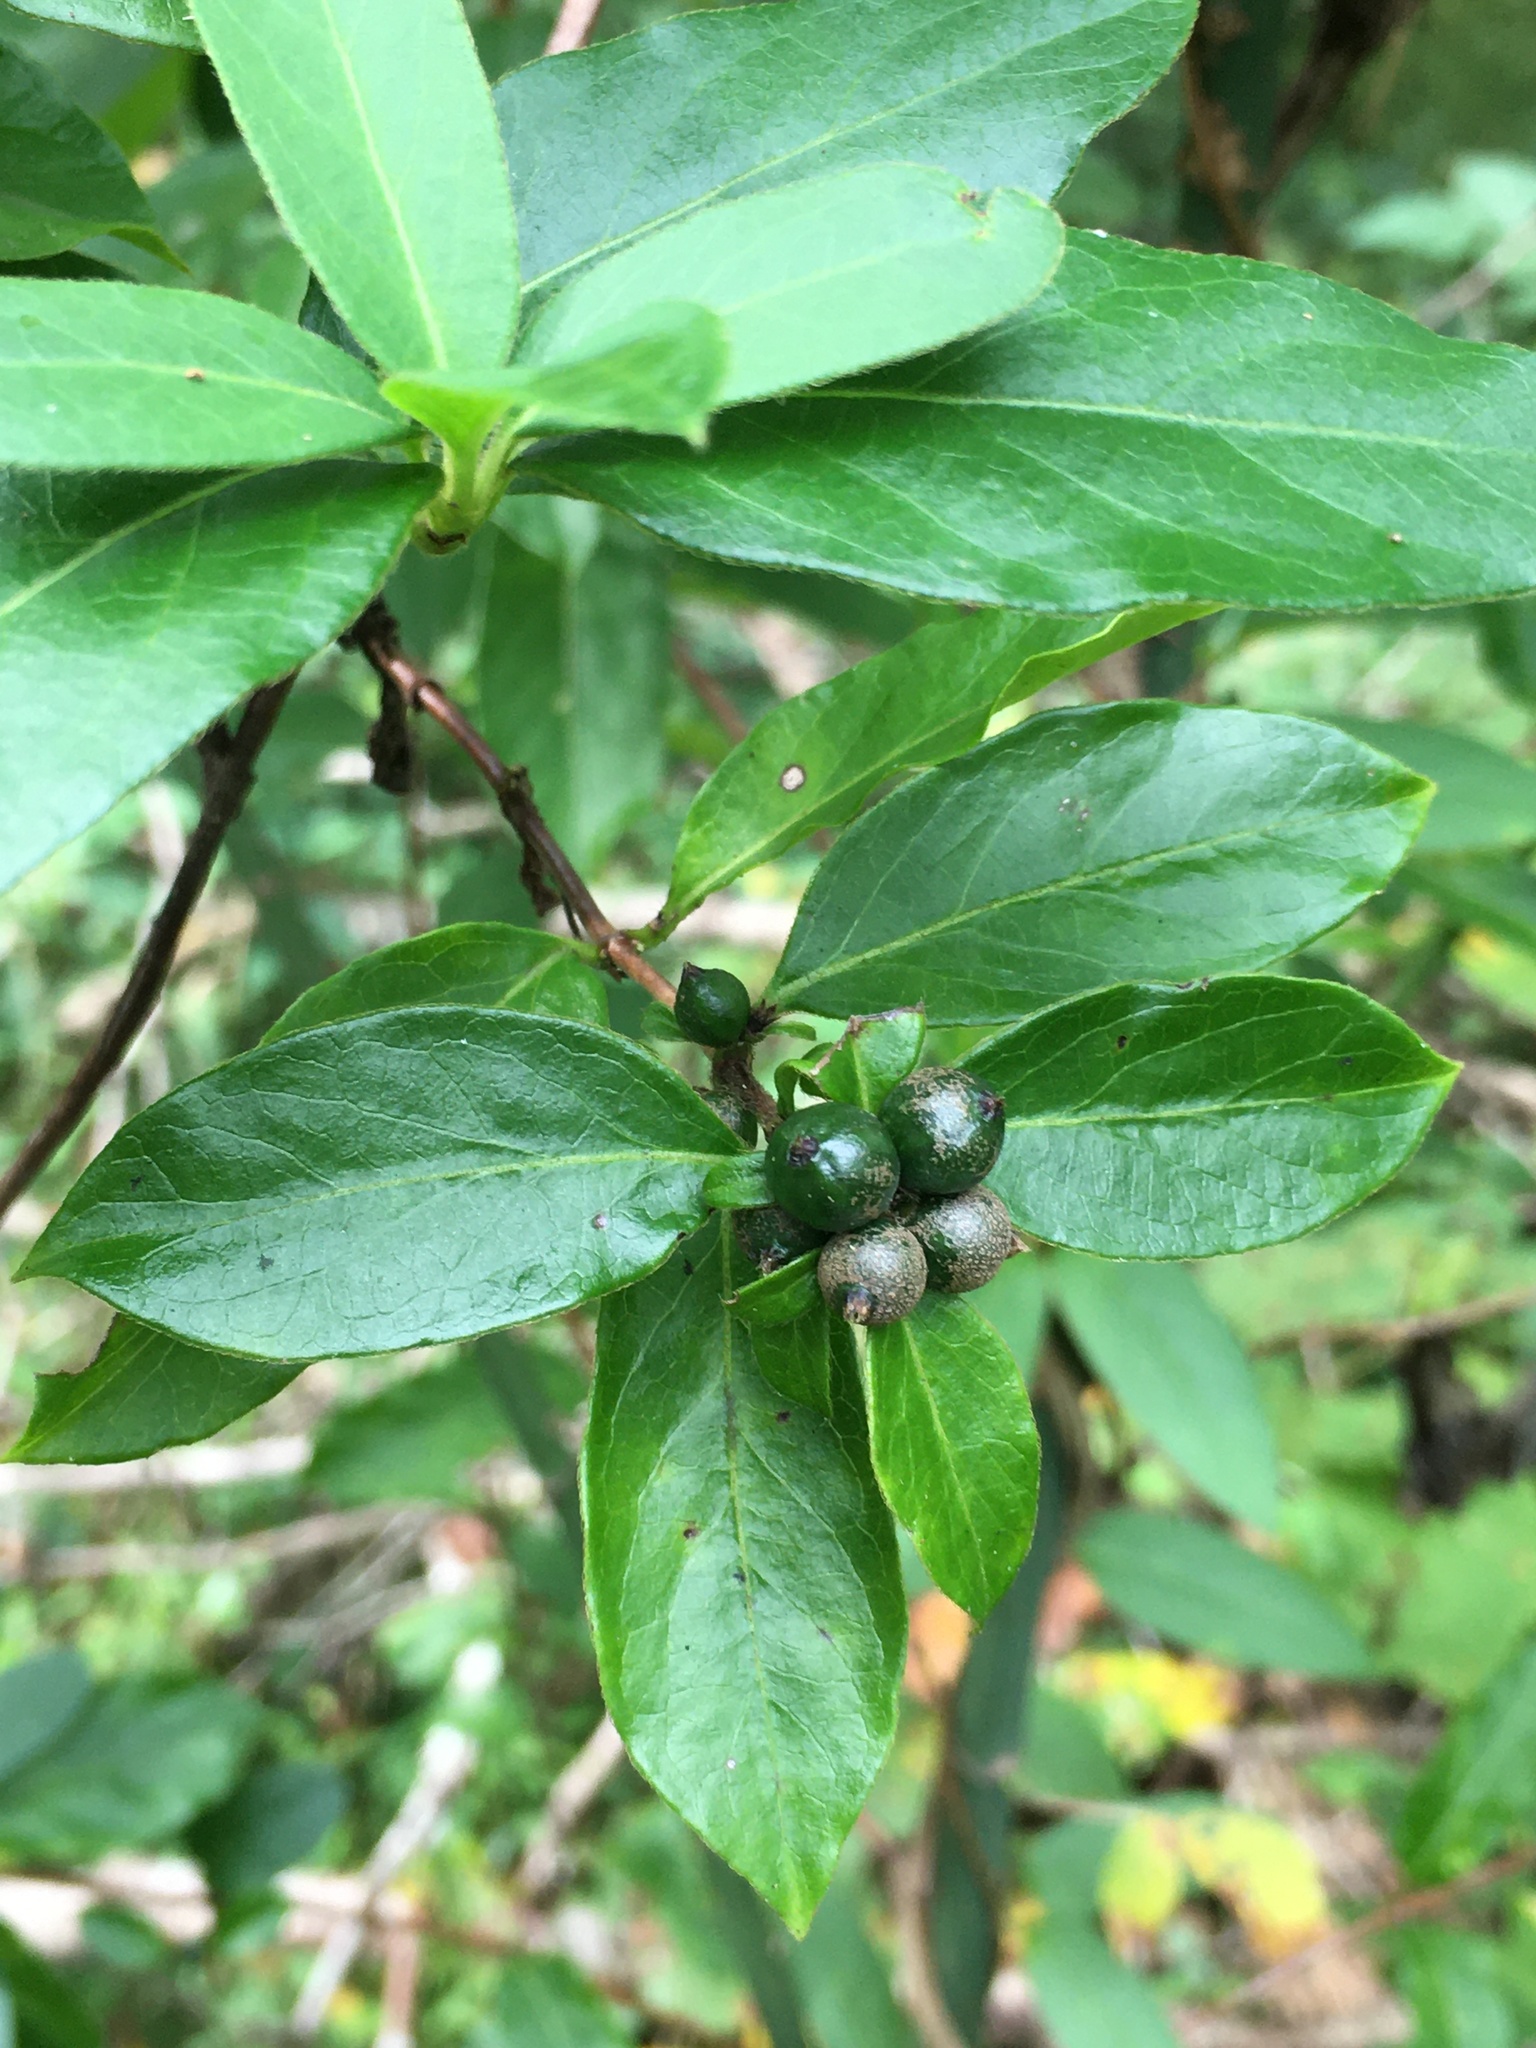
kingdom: Plantae
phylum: Tracheophyta
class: Magnoliopsida
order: Dipsacales
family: Caprifoliaceae
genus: Lonicera
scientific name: Lonicera japonica
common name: Japanese honeysuckle
